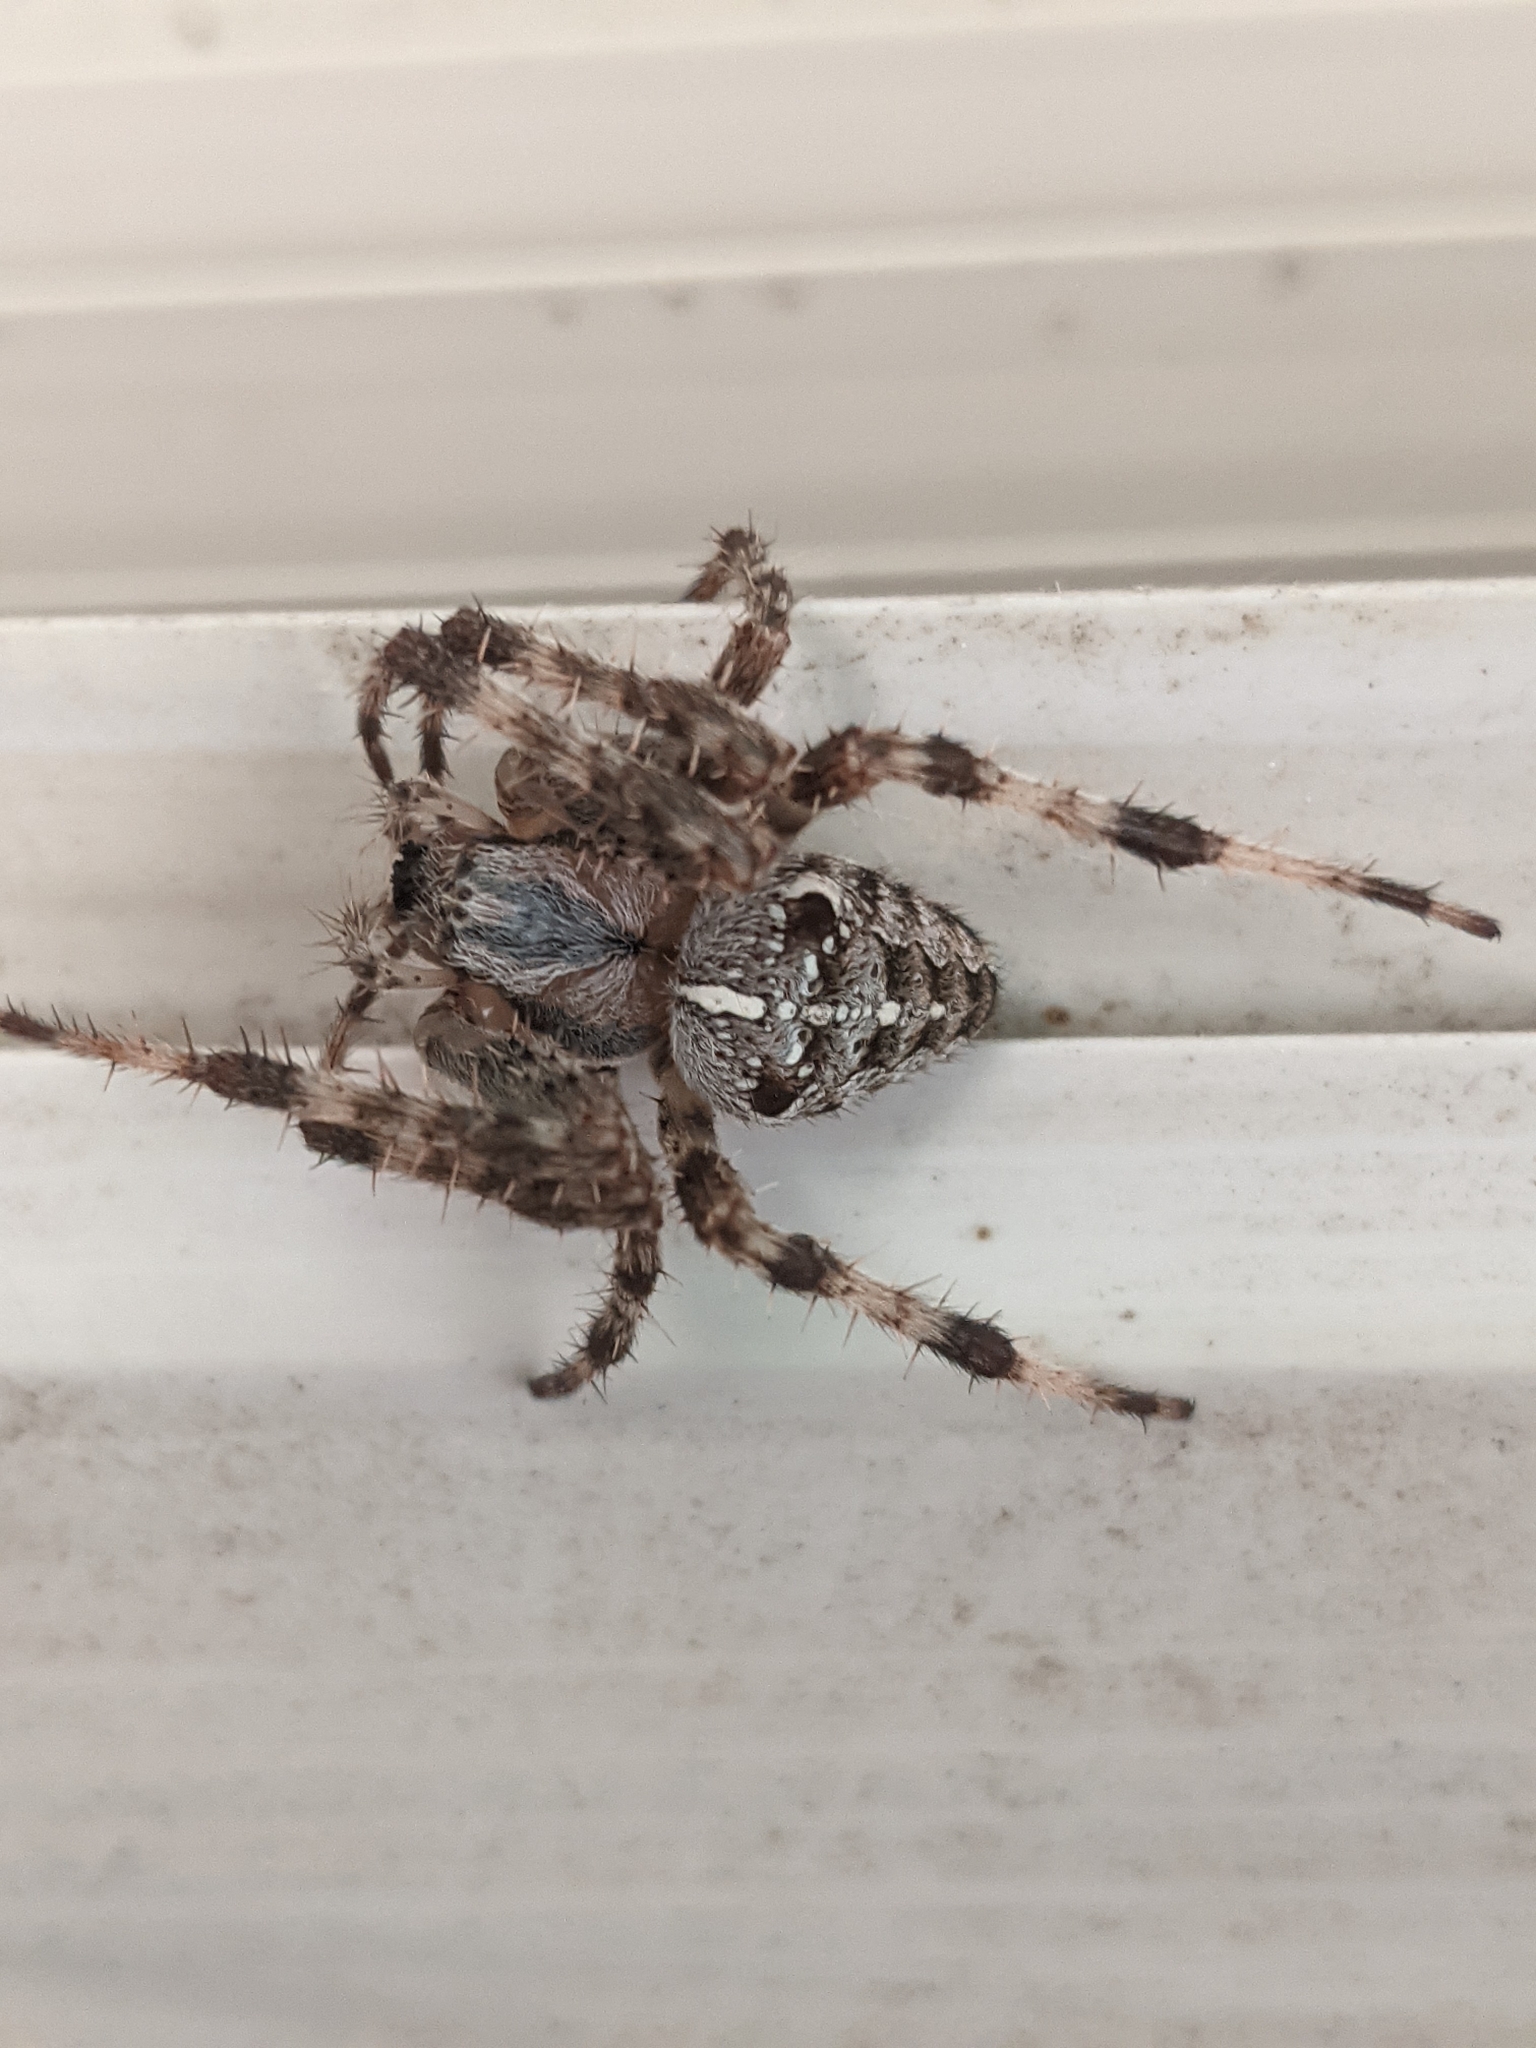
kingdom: Animalia
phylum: Arthropoda
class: Arachnida
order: Araneae
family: Araneidae
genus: Araneus
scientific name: Araneus diadematus
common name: Cross orbweaver
